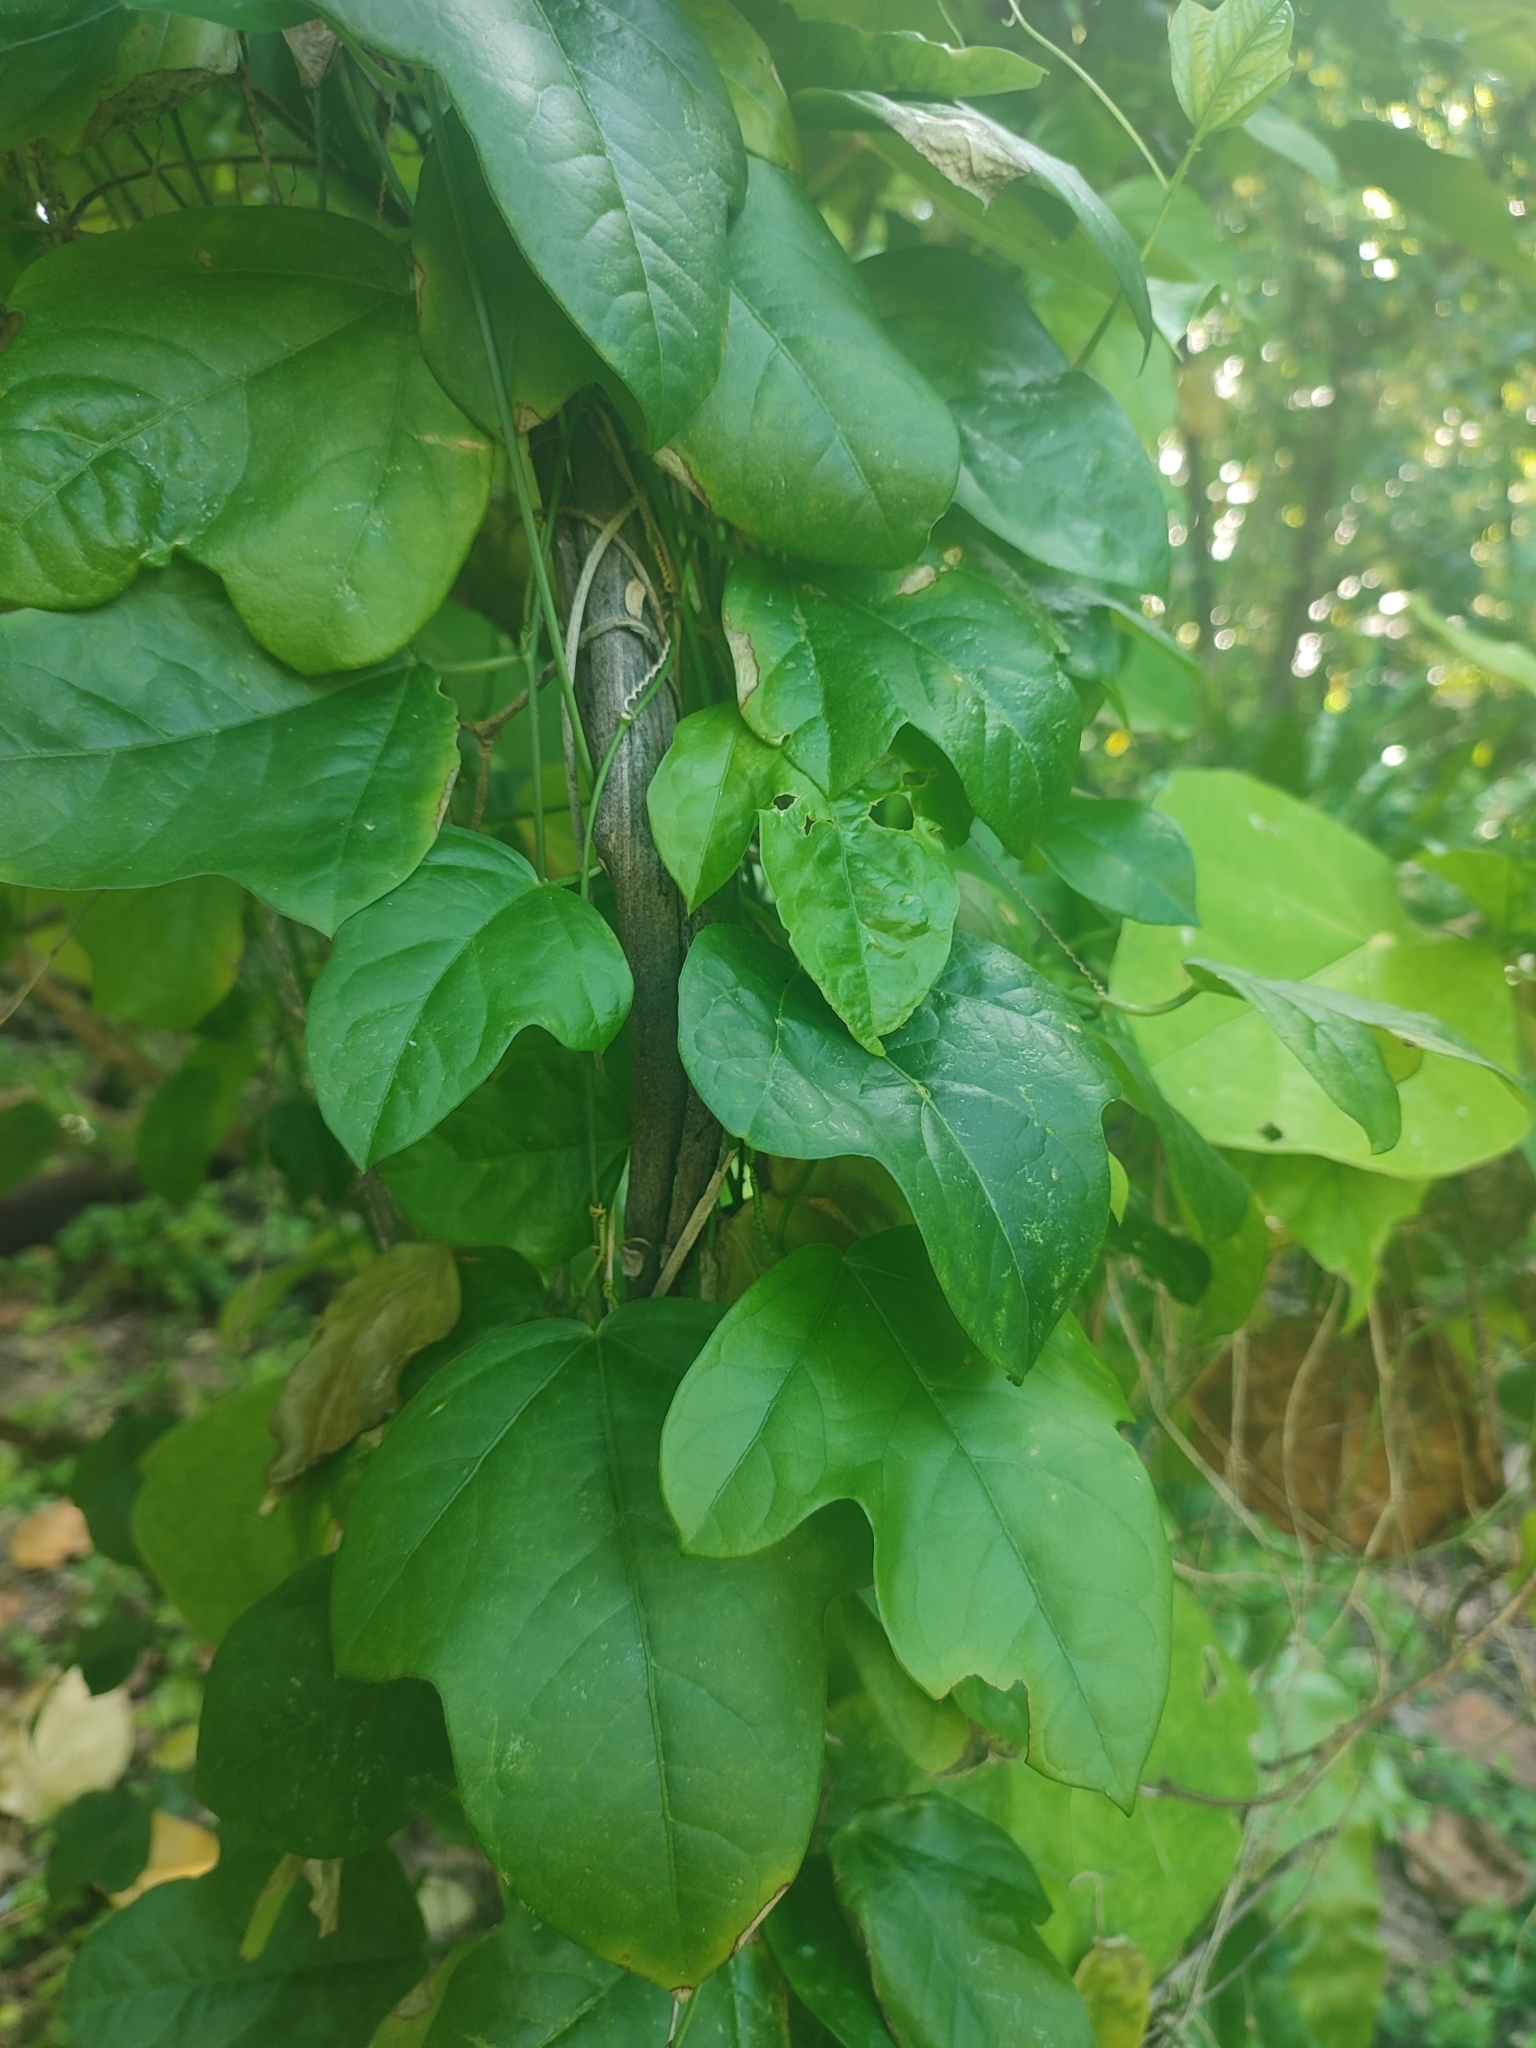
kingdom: Plantae
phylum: Tracheophyta
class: Magnoliopsida
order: Malpighiales
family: Passifloraceae
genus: Passiflora
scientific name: Passiflora pallida
